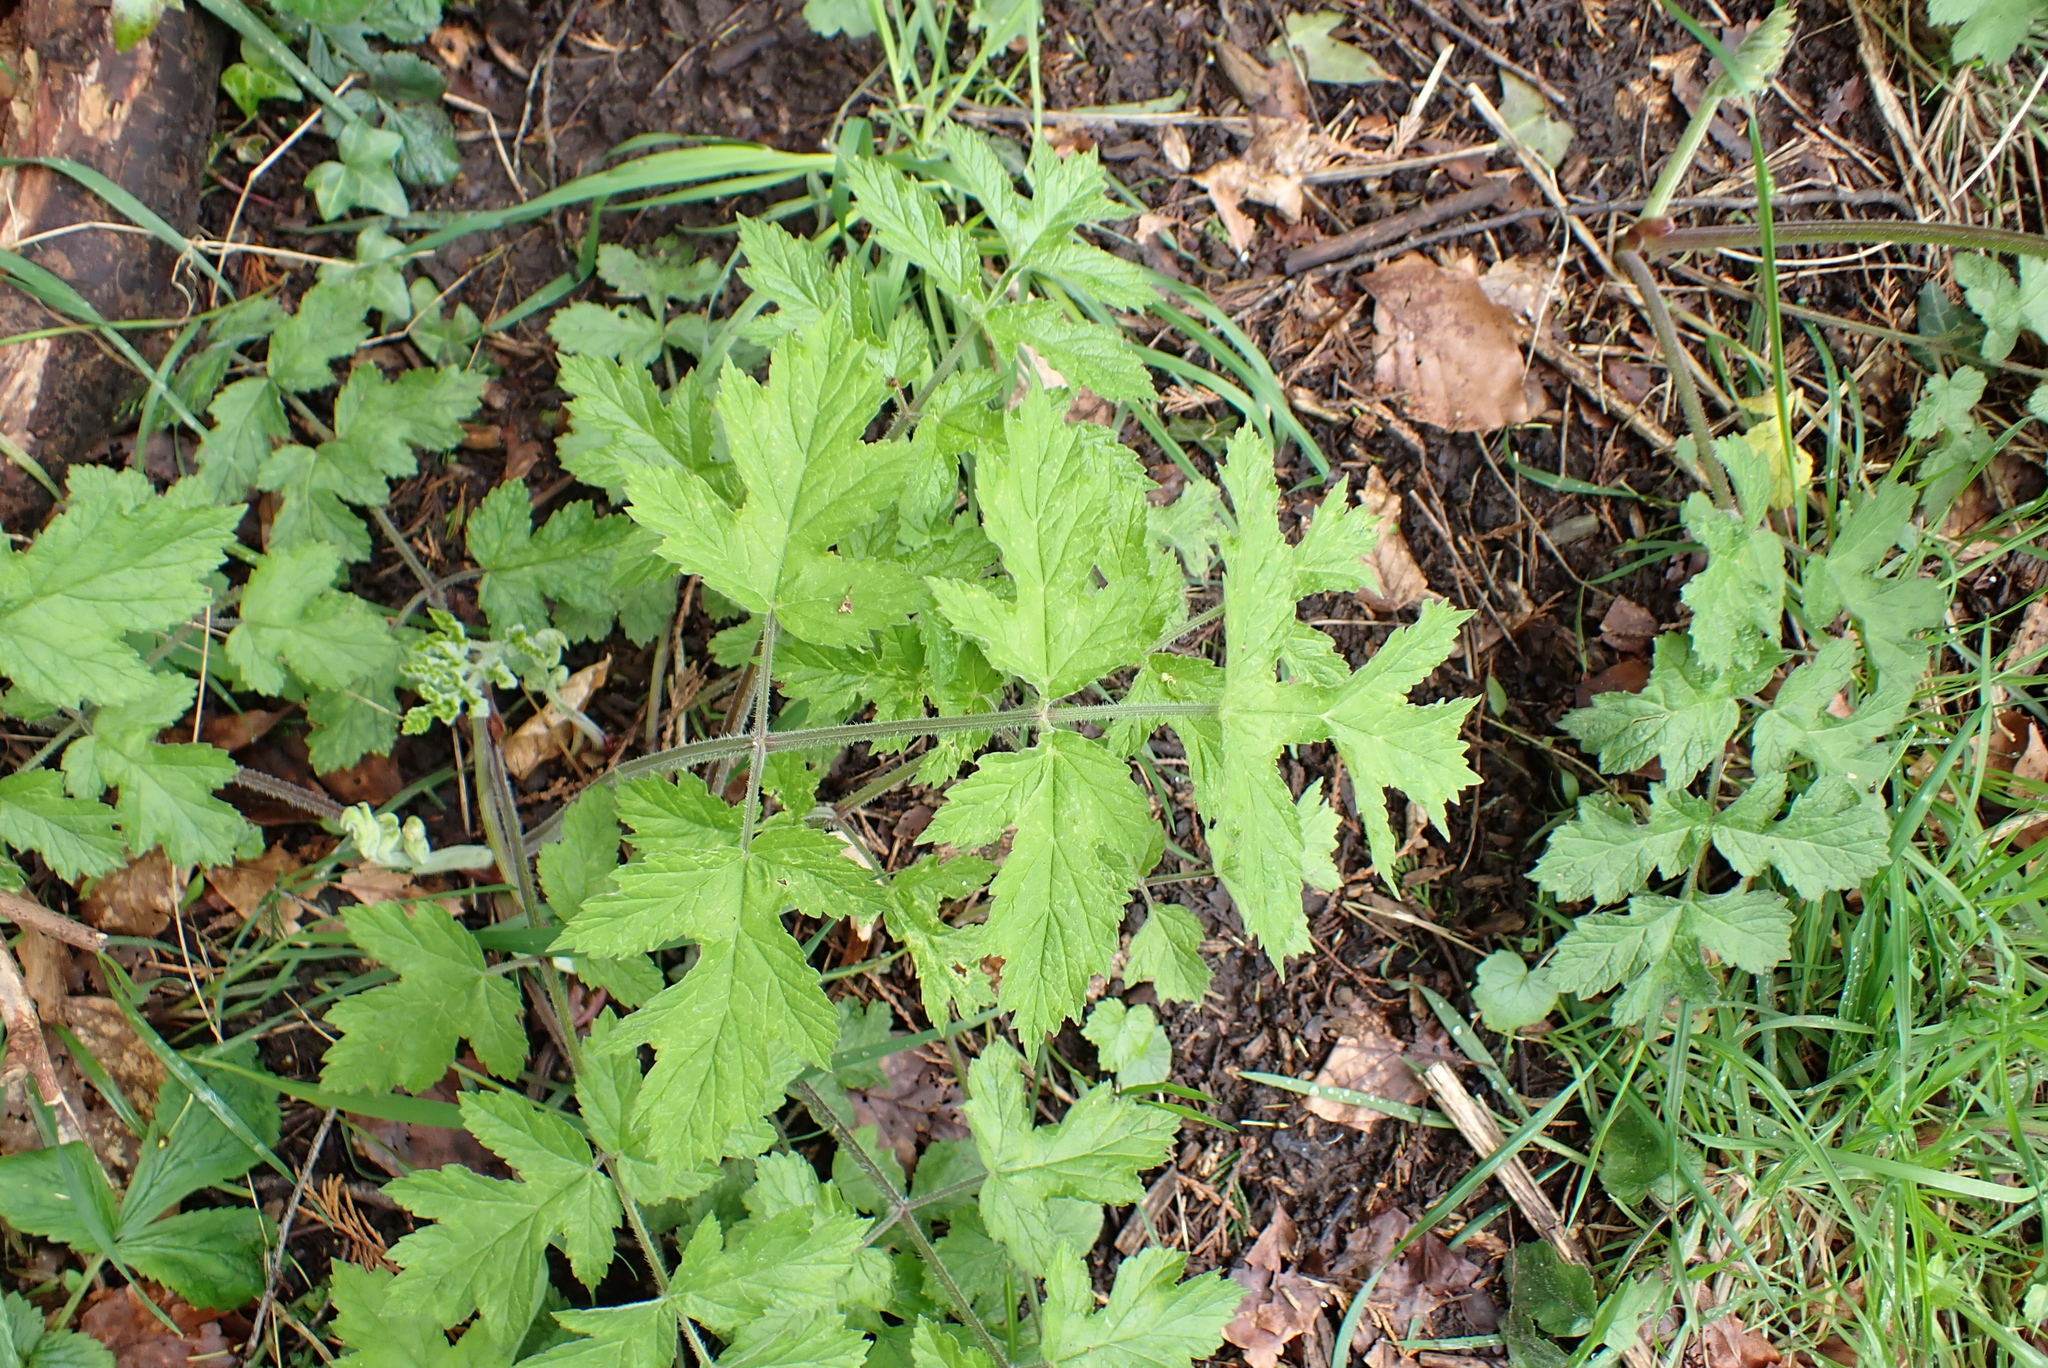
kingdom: Plantae
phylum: Tracheophyta
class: Magnoliopsida
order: Apiales
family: Apiaceae
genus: Heracleum
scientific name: Heracleum sphondylium
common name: Hogweed
